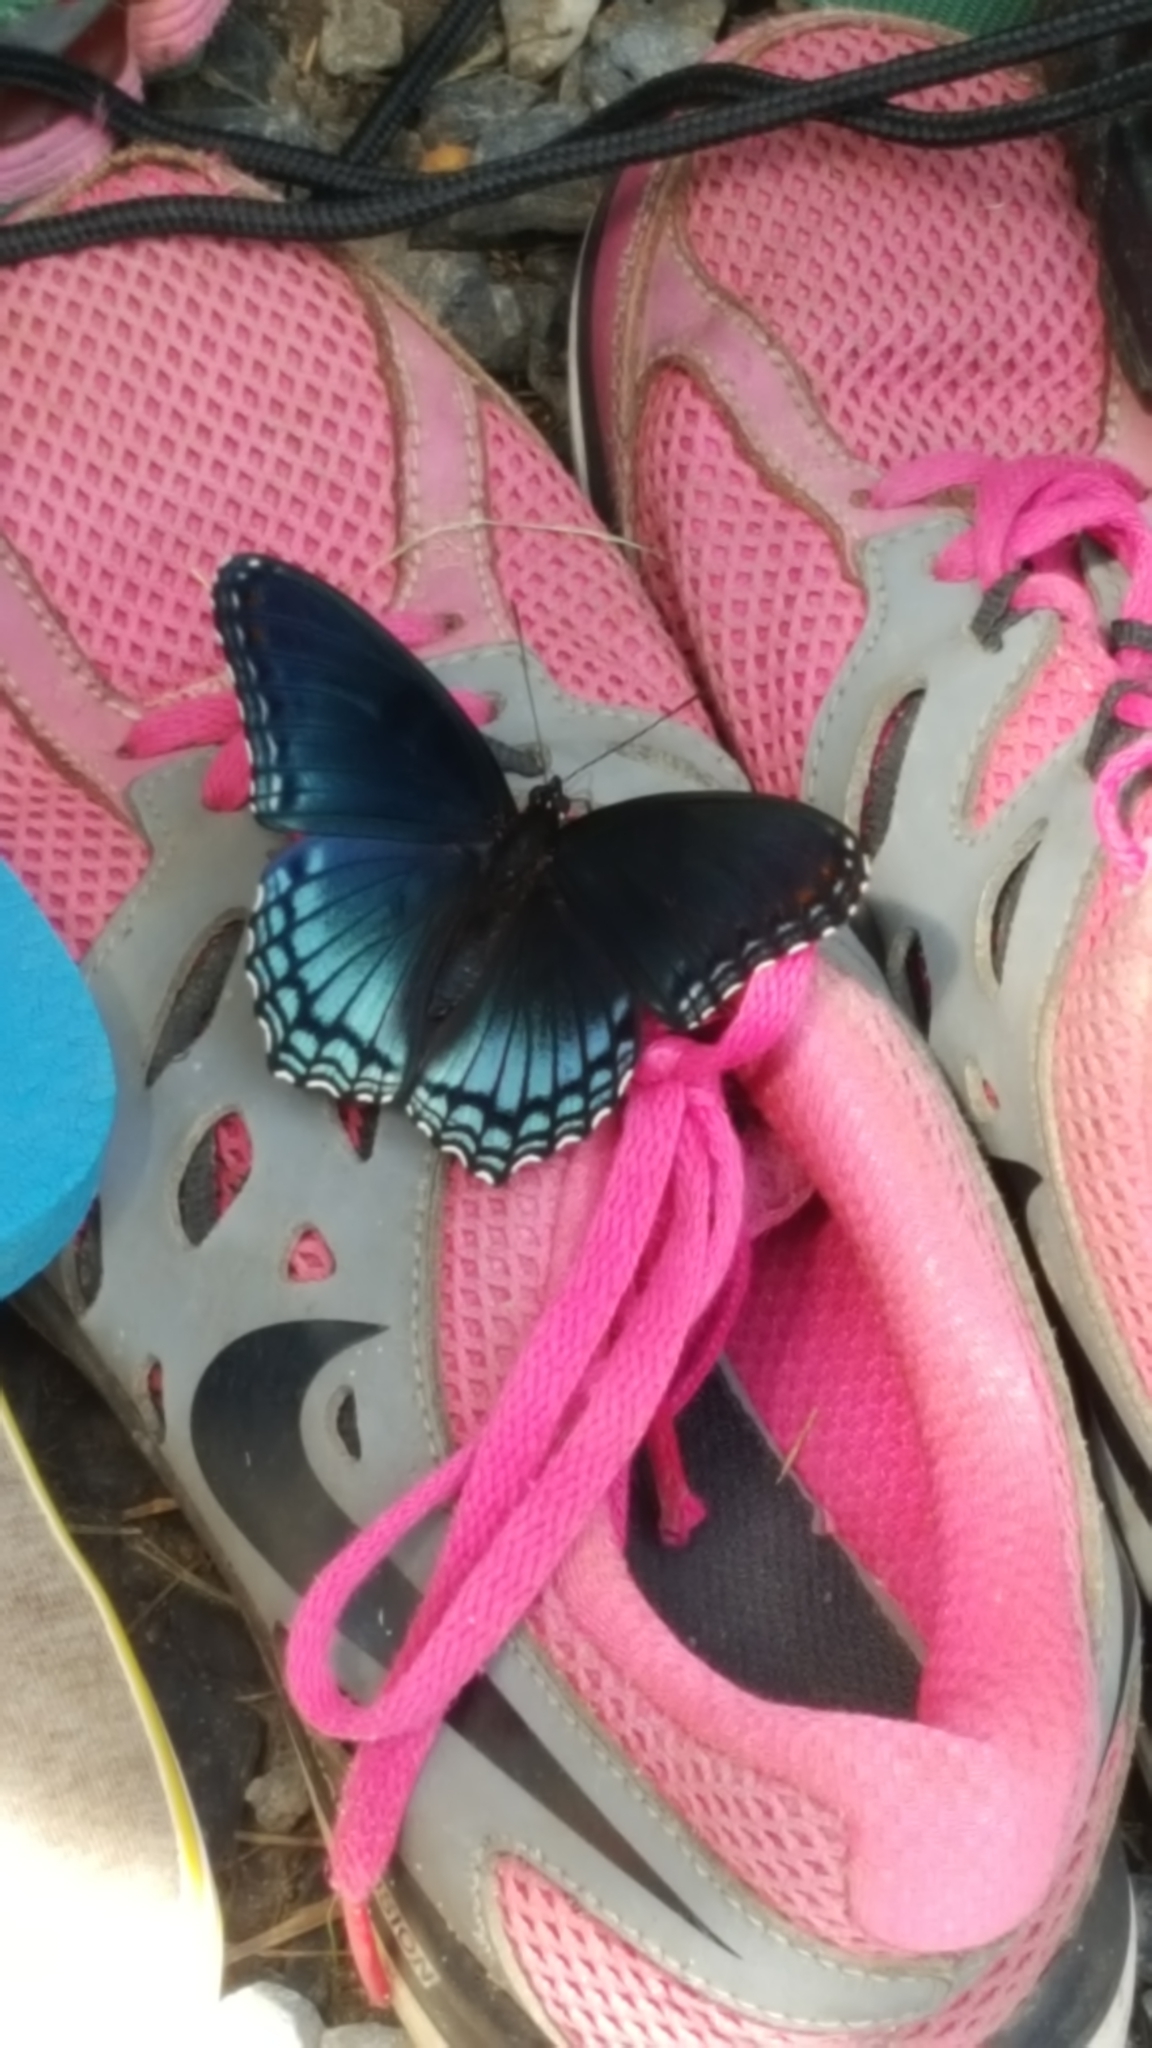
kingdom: Animalia
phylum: Arthropoda
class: Insecta
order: Lepidoptera
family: Nymphalidae
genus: Limenitis
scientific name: Limenitis astyanax
